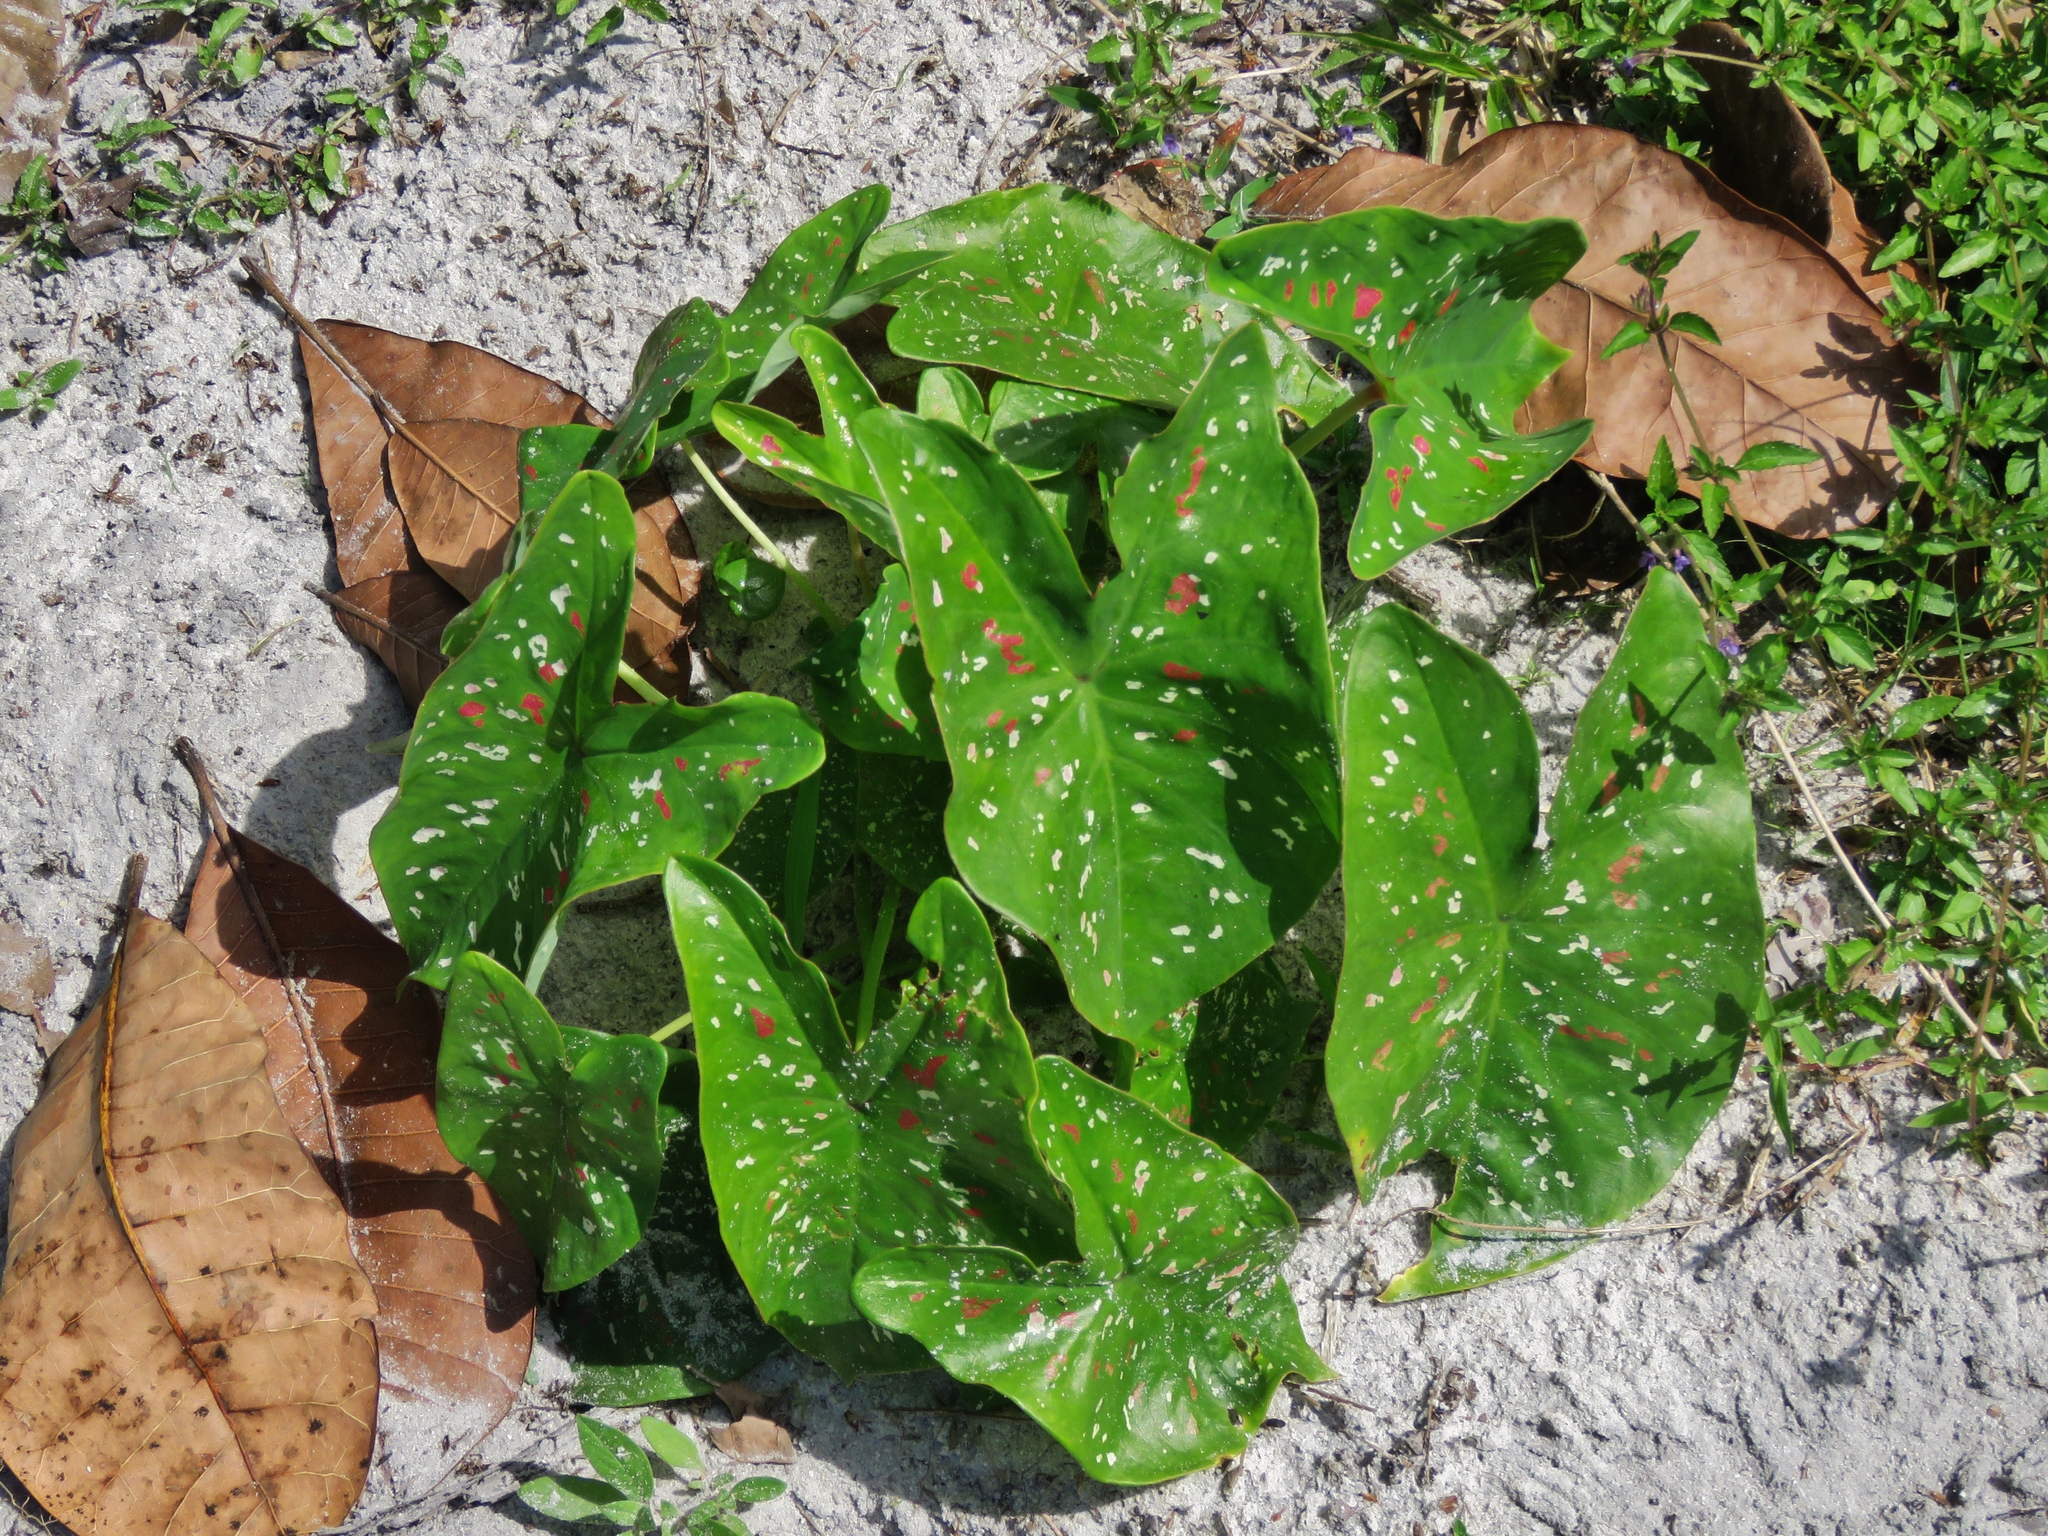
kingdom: Plantae
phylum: Tracheophyta
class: Liliopsida
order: Alismatales
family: Araceae
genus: Caladium
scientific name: Caladium bicolor
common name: Artist's pallet
